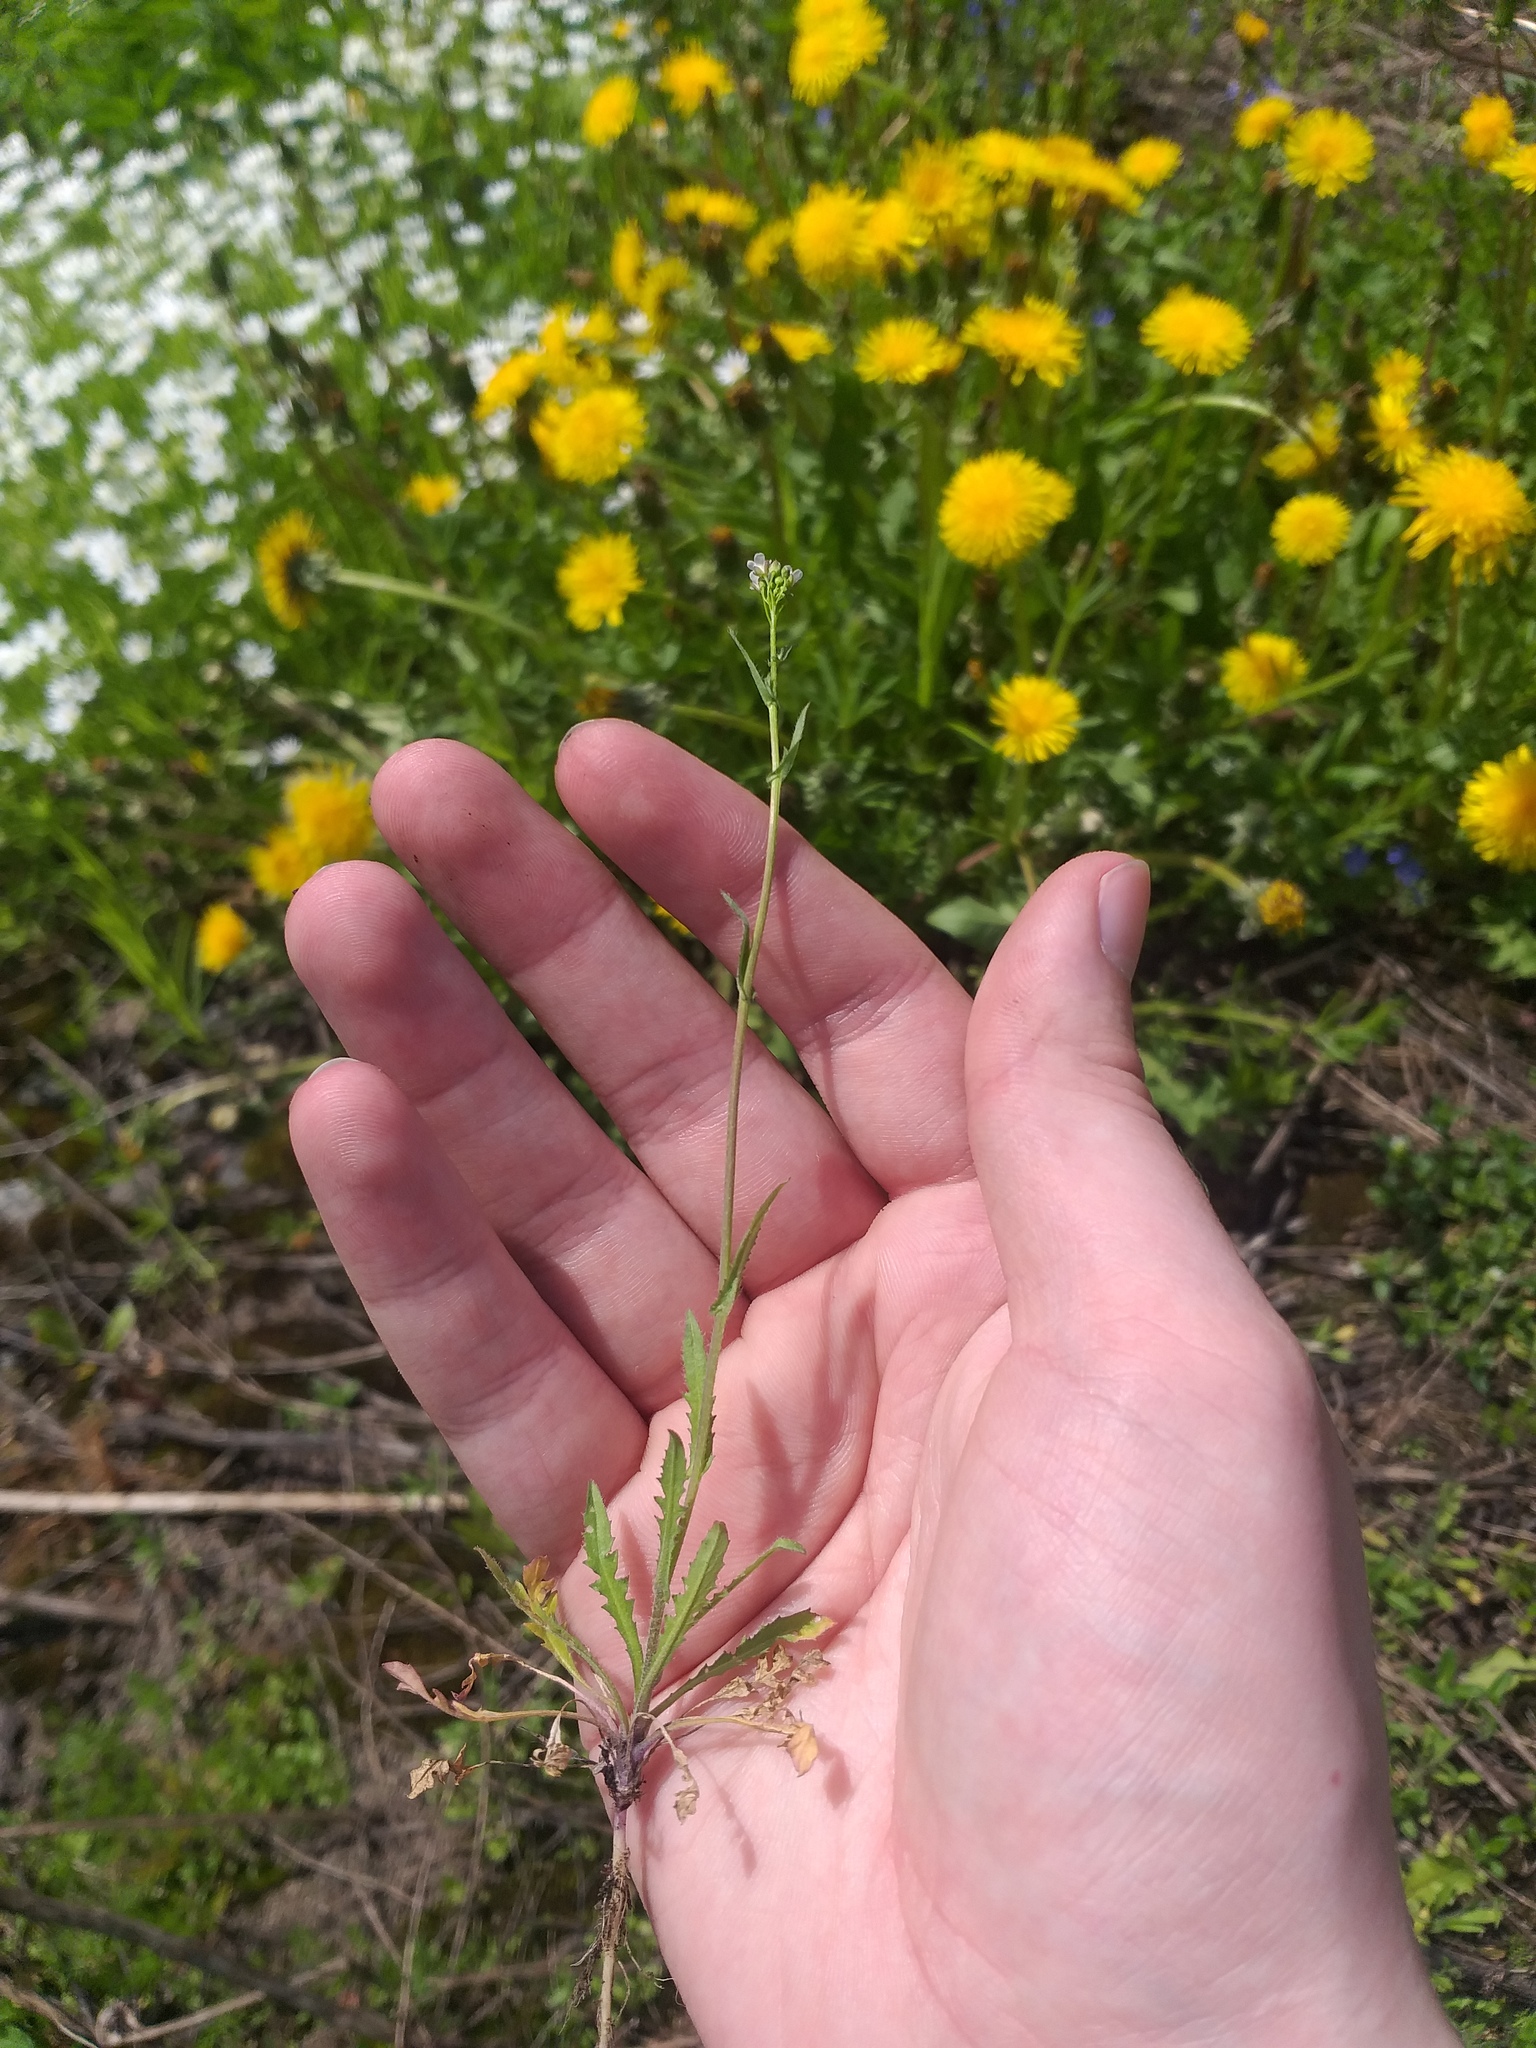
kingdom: Plantae
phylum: Tracheophyta
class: Magnoliopsida
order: Brassicales
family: Brassicaceae
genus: Capsella
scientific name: Capsella bursa-pastoris
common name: Shepherd's purse
